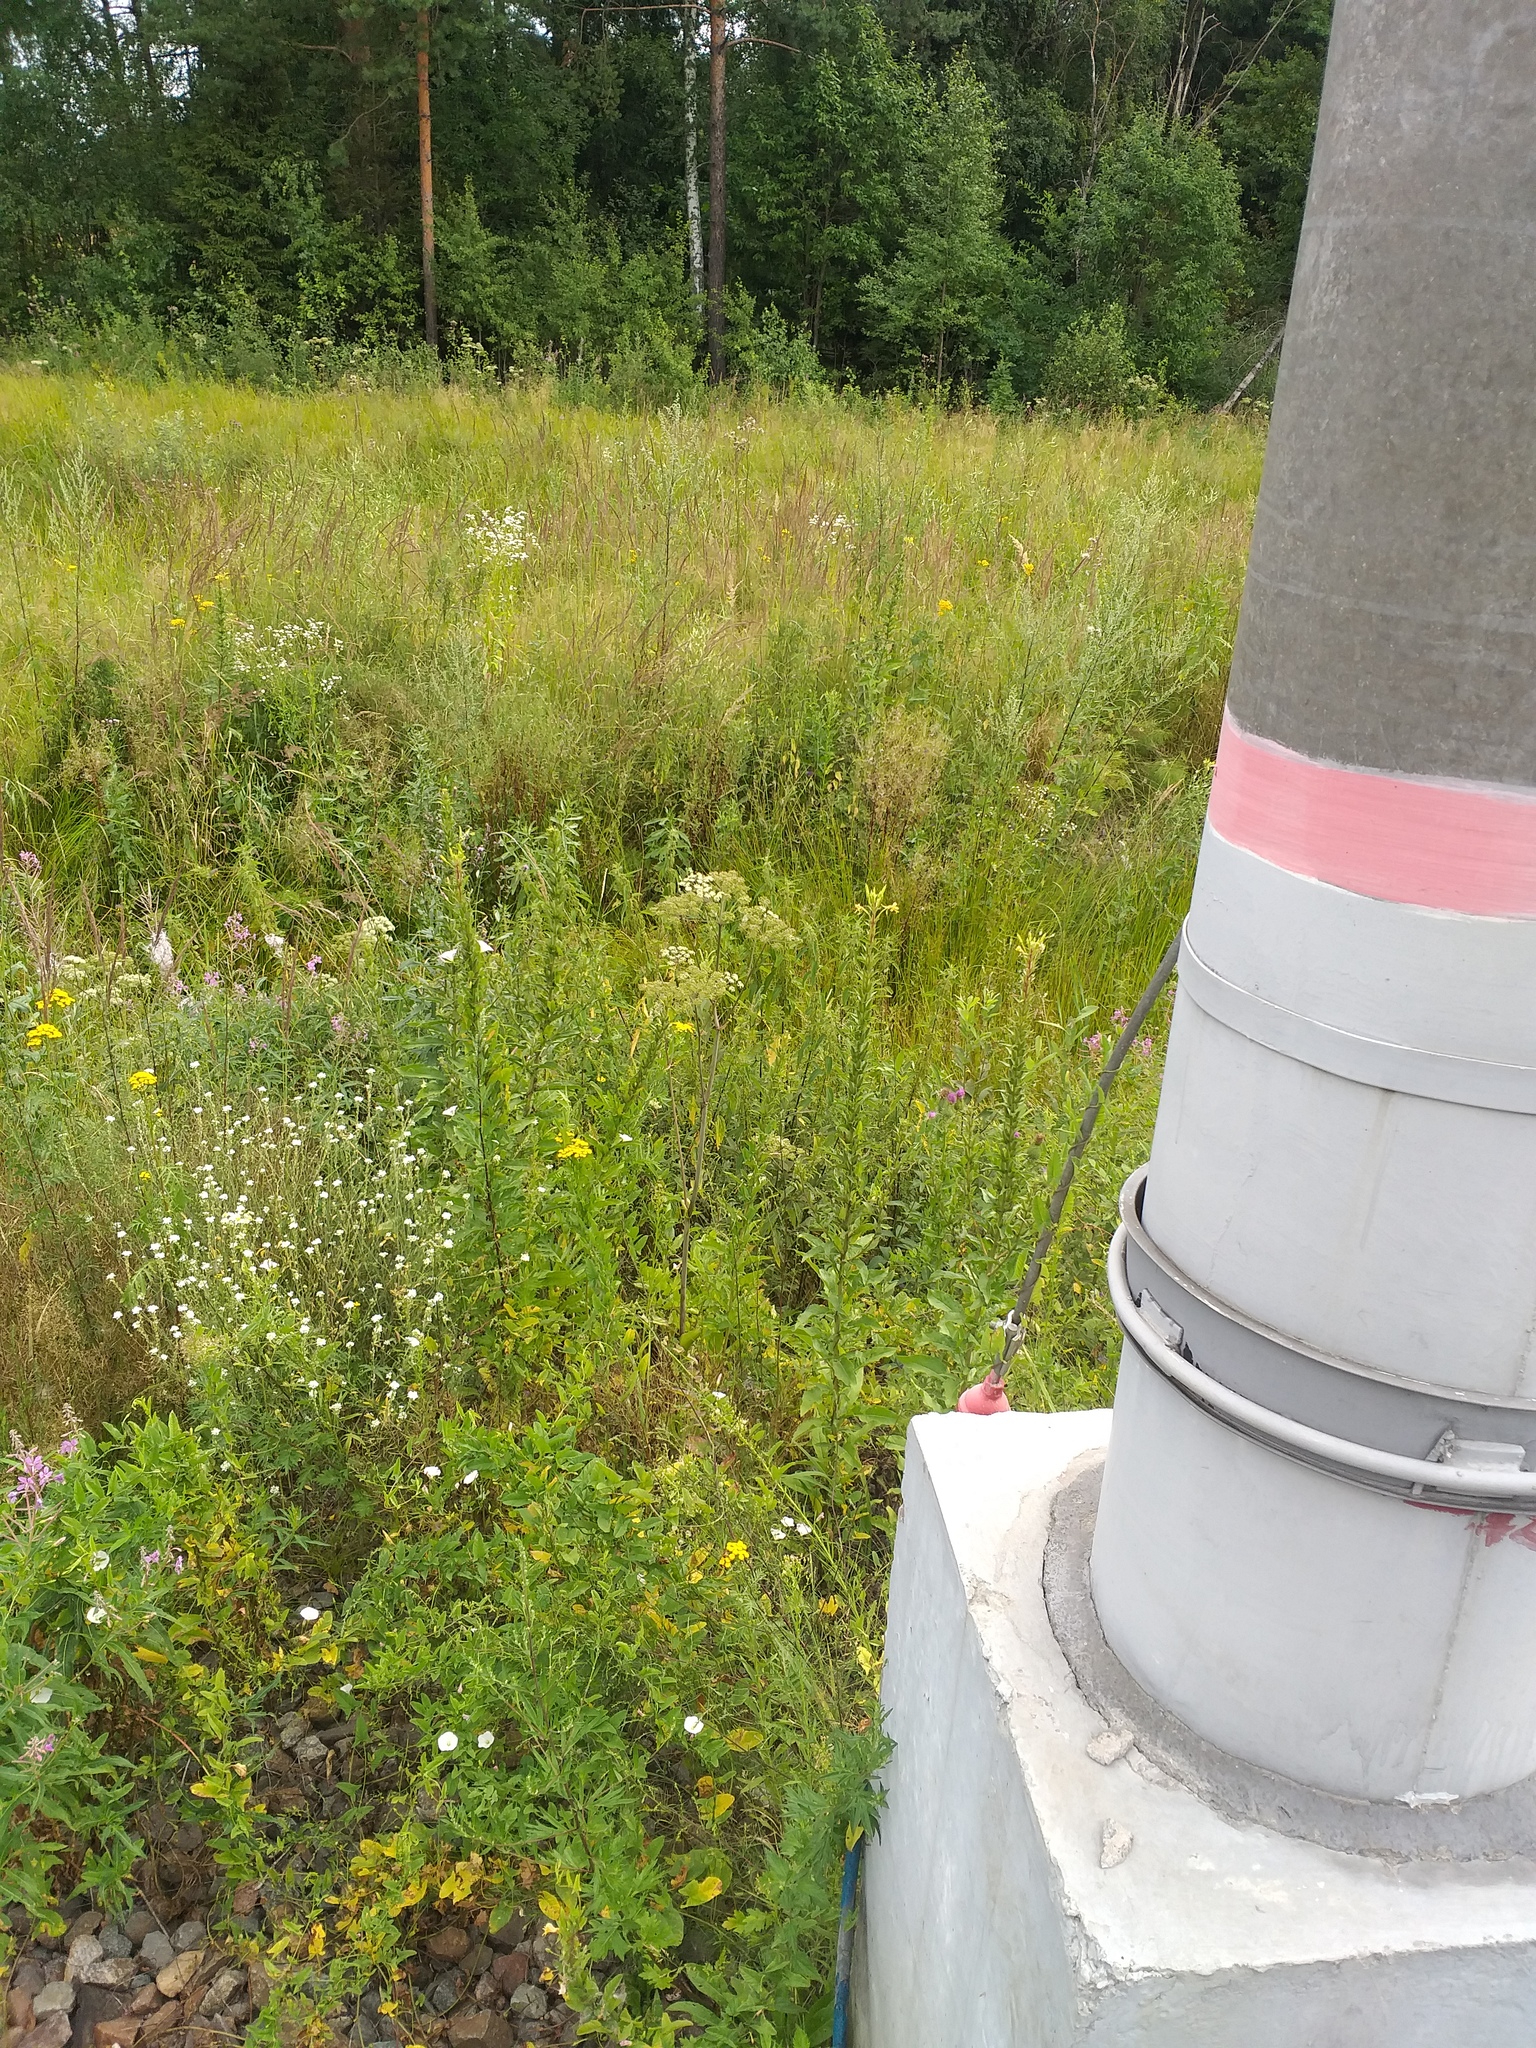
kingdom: Plantae
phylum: Tracheophyta
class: Magnoliopsida
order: Apiales
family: Apiaceae
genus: Angelica
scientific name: Angelica sylvestris
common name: Wild angelica
